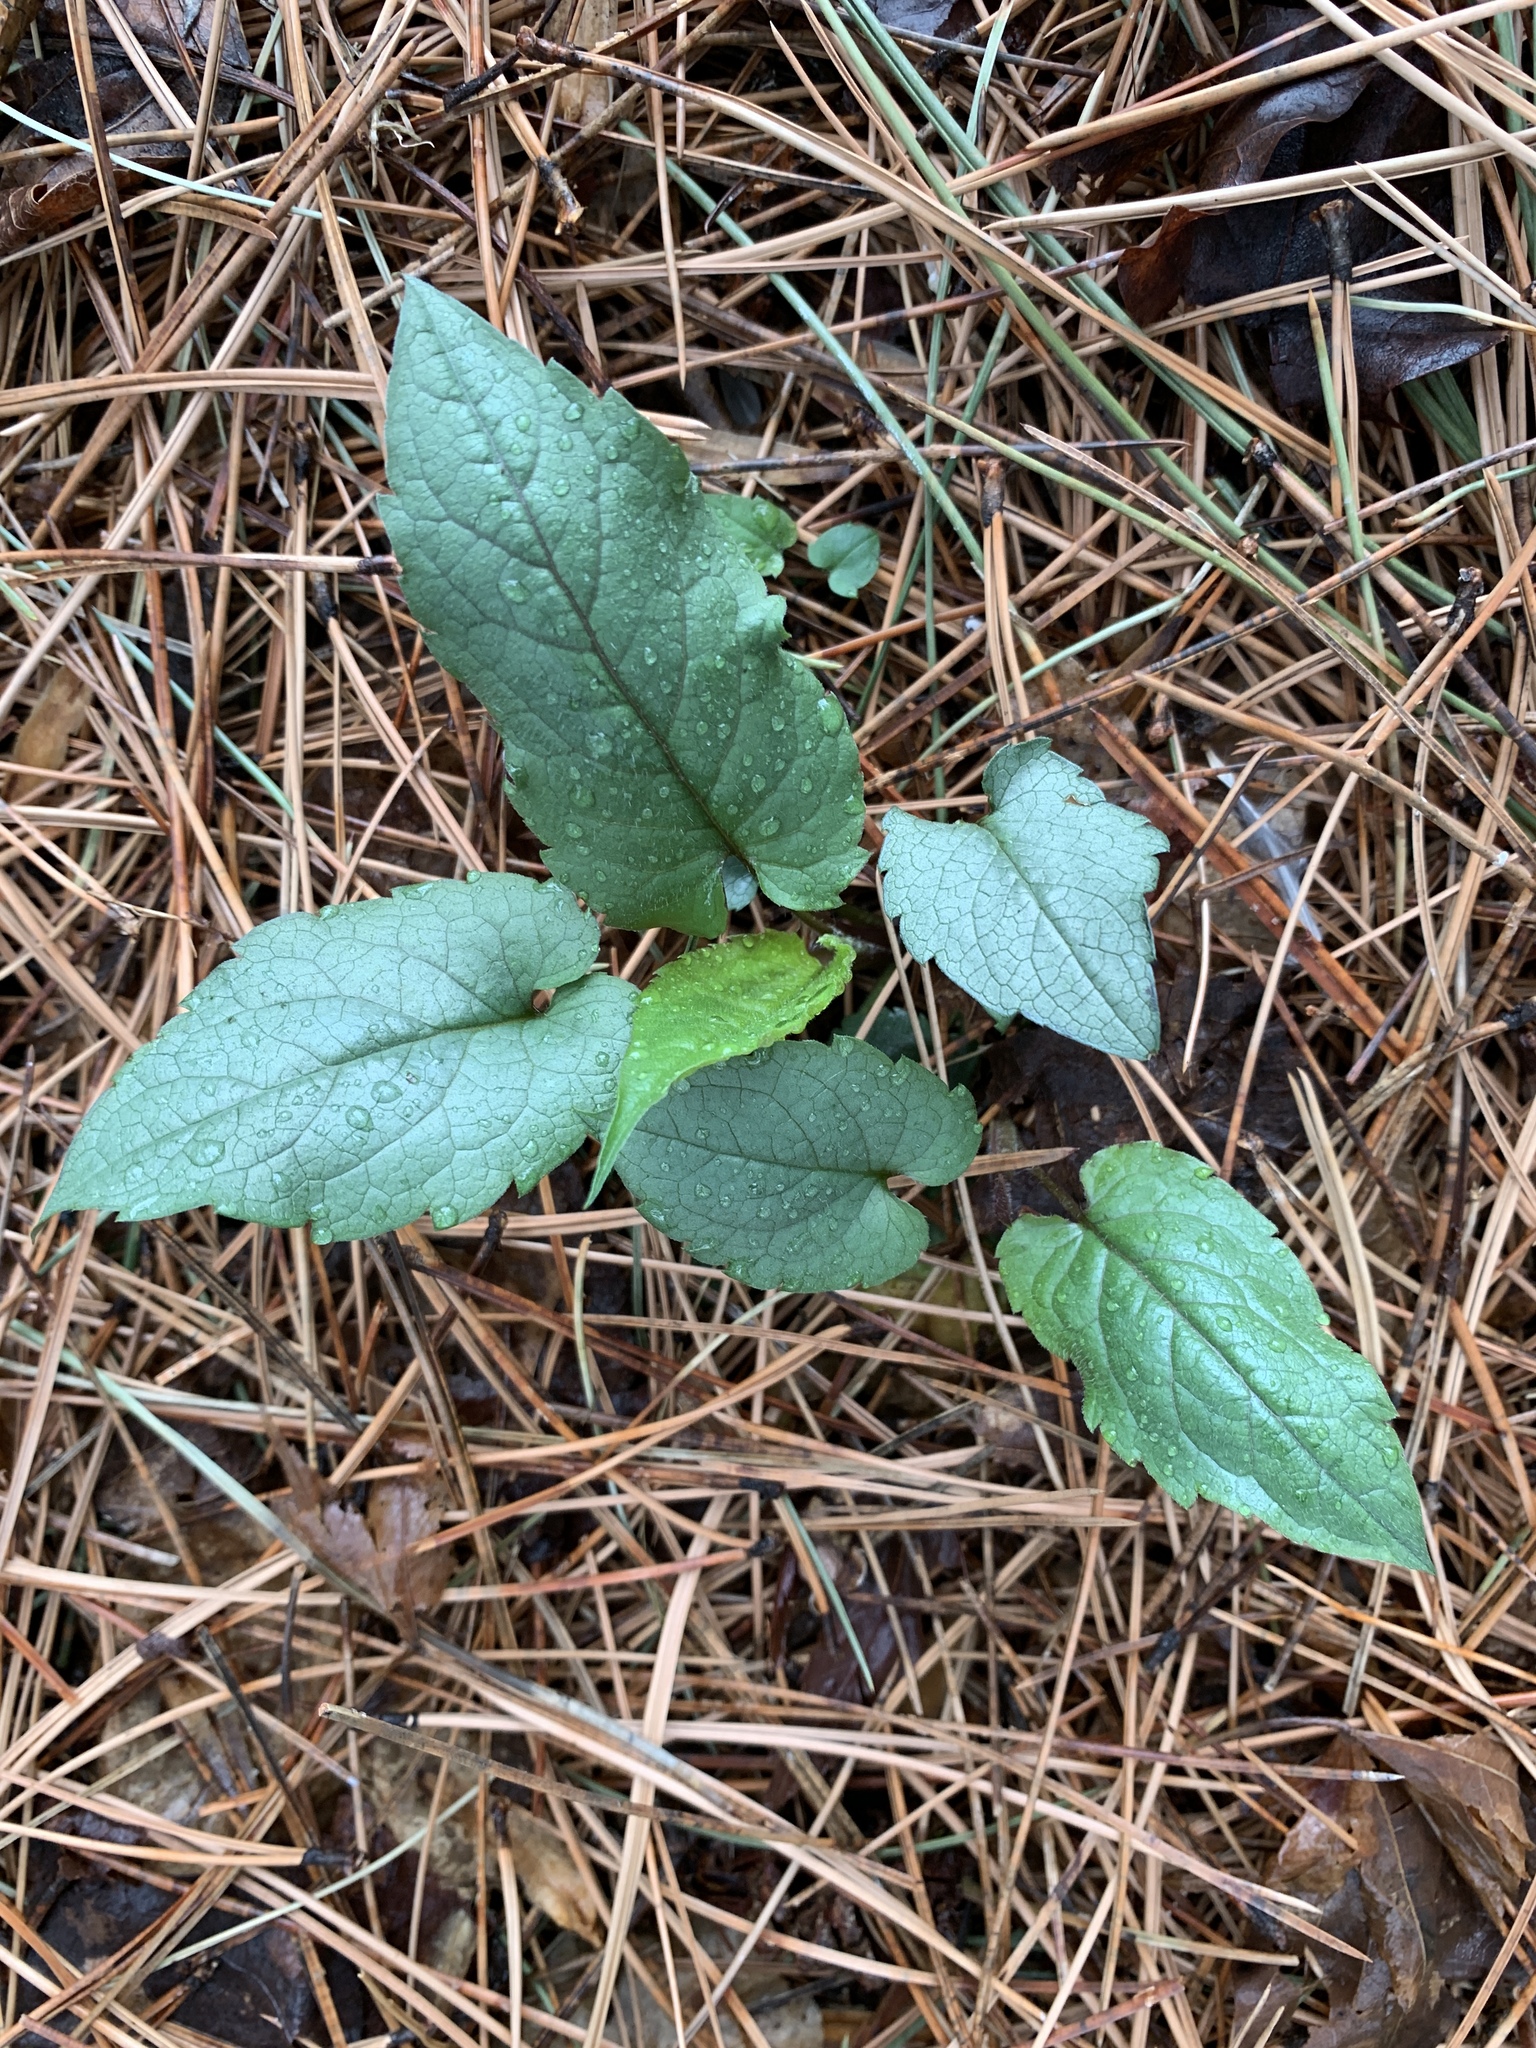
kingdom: Plantae
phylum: Tracheophyta
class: Magnoliopsida
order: Asterales
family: Asteraceae
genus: Eurybia
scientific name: Eurybia divaricata
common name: White wood aster
